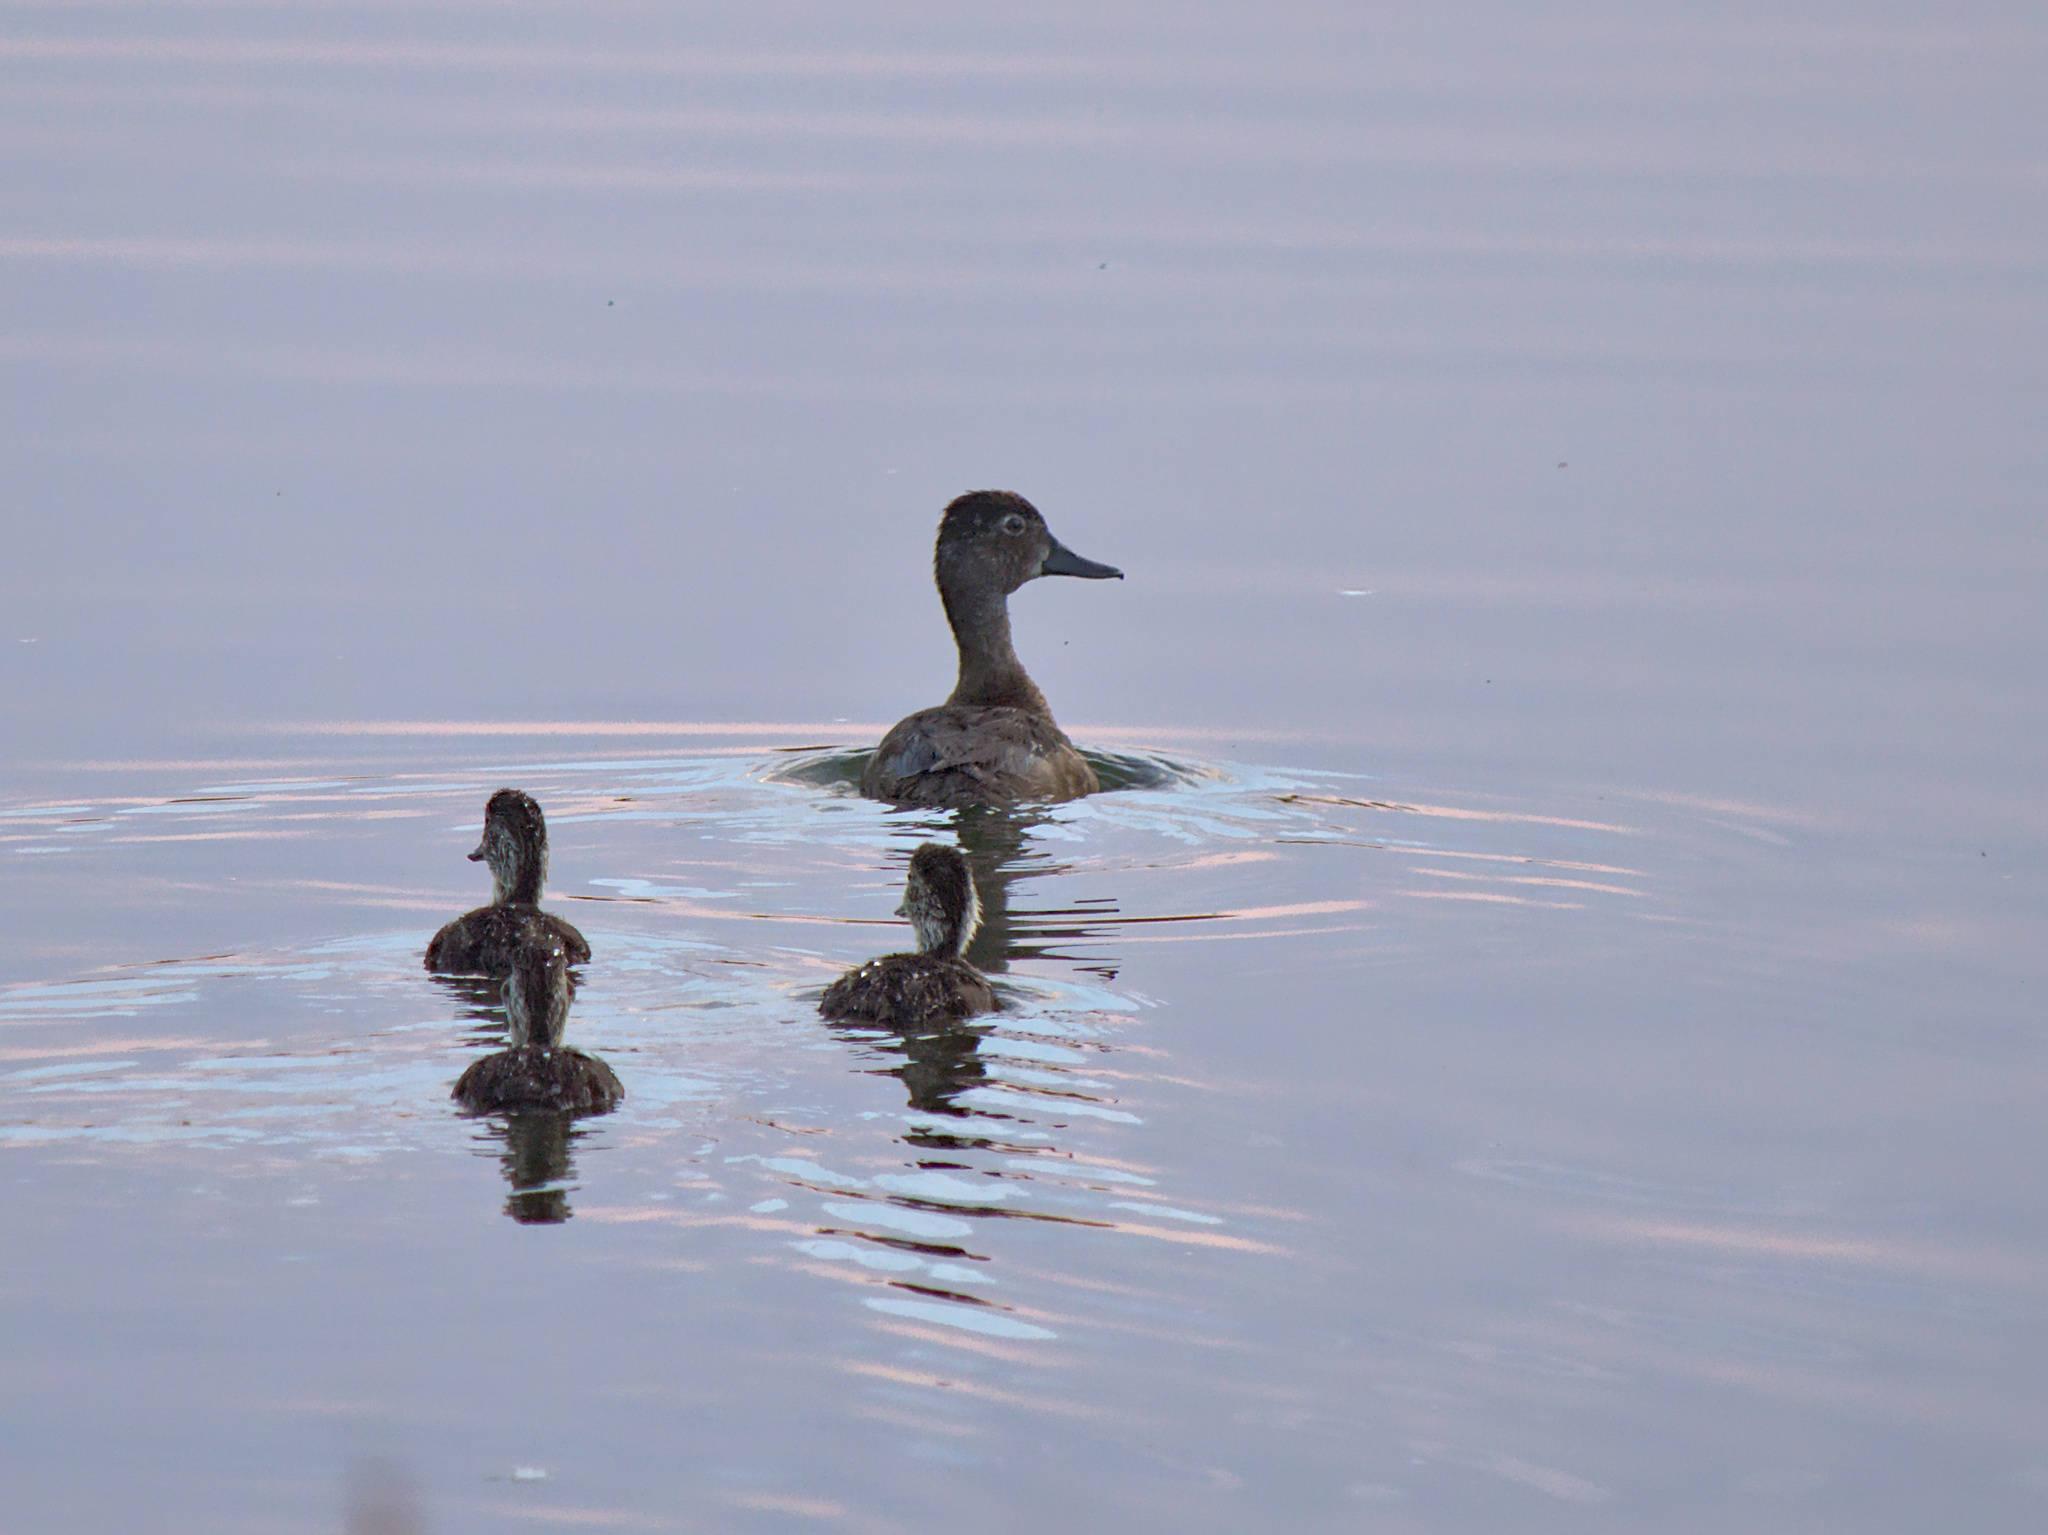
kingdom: Animalia
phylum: Chordata
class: Aves
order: Anseriformes
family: Anatidae
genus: Spatula
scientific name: Spatula discors
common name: Blue-winged teal
